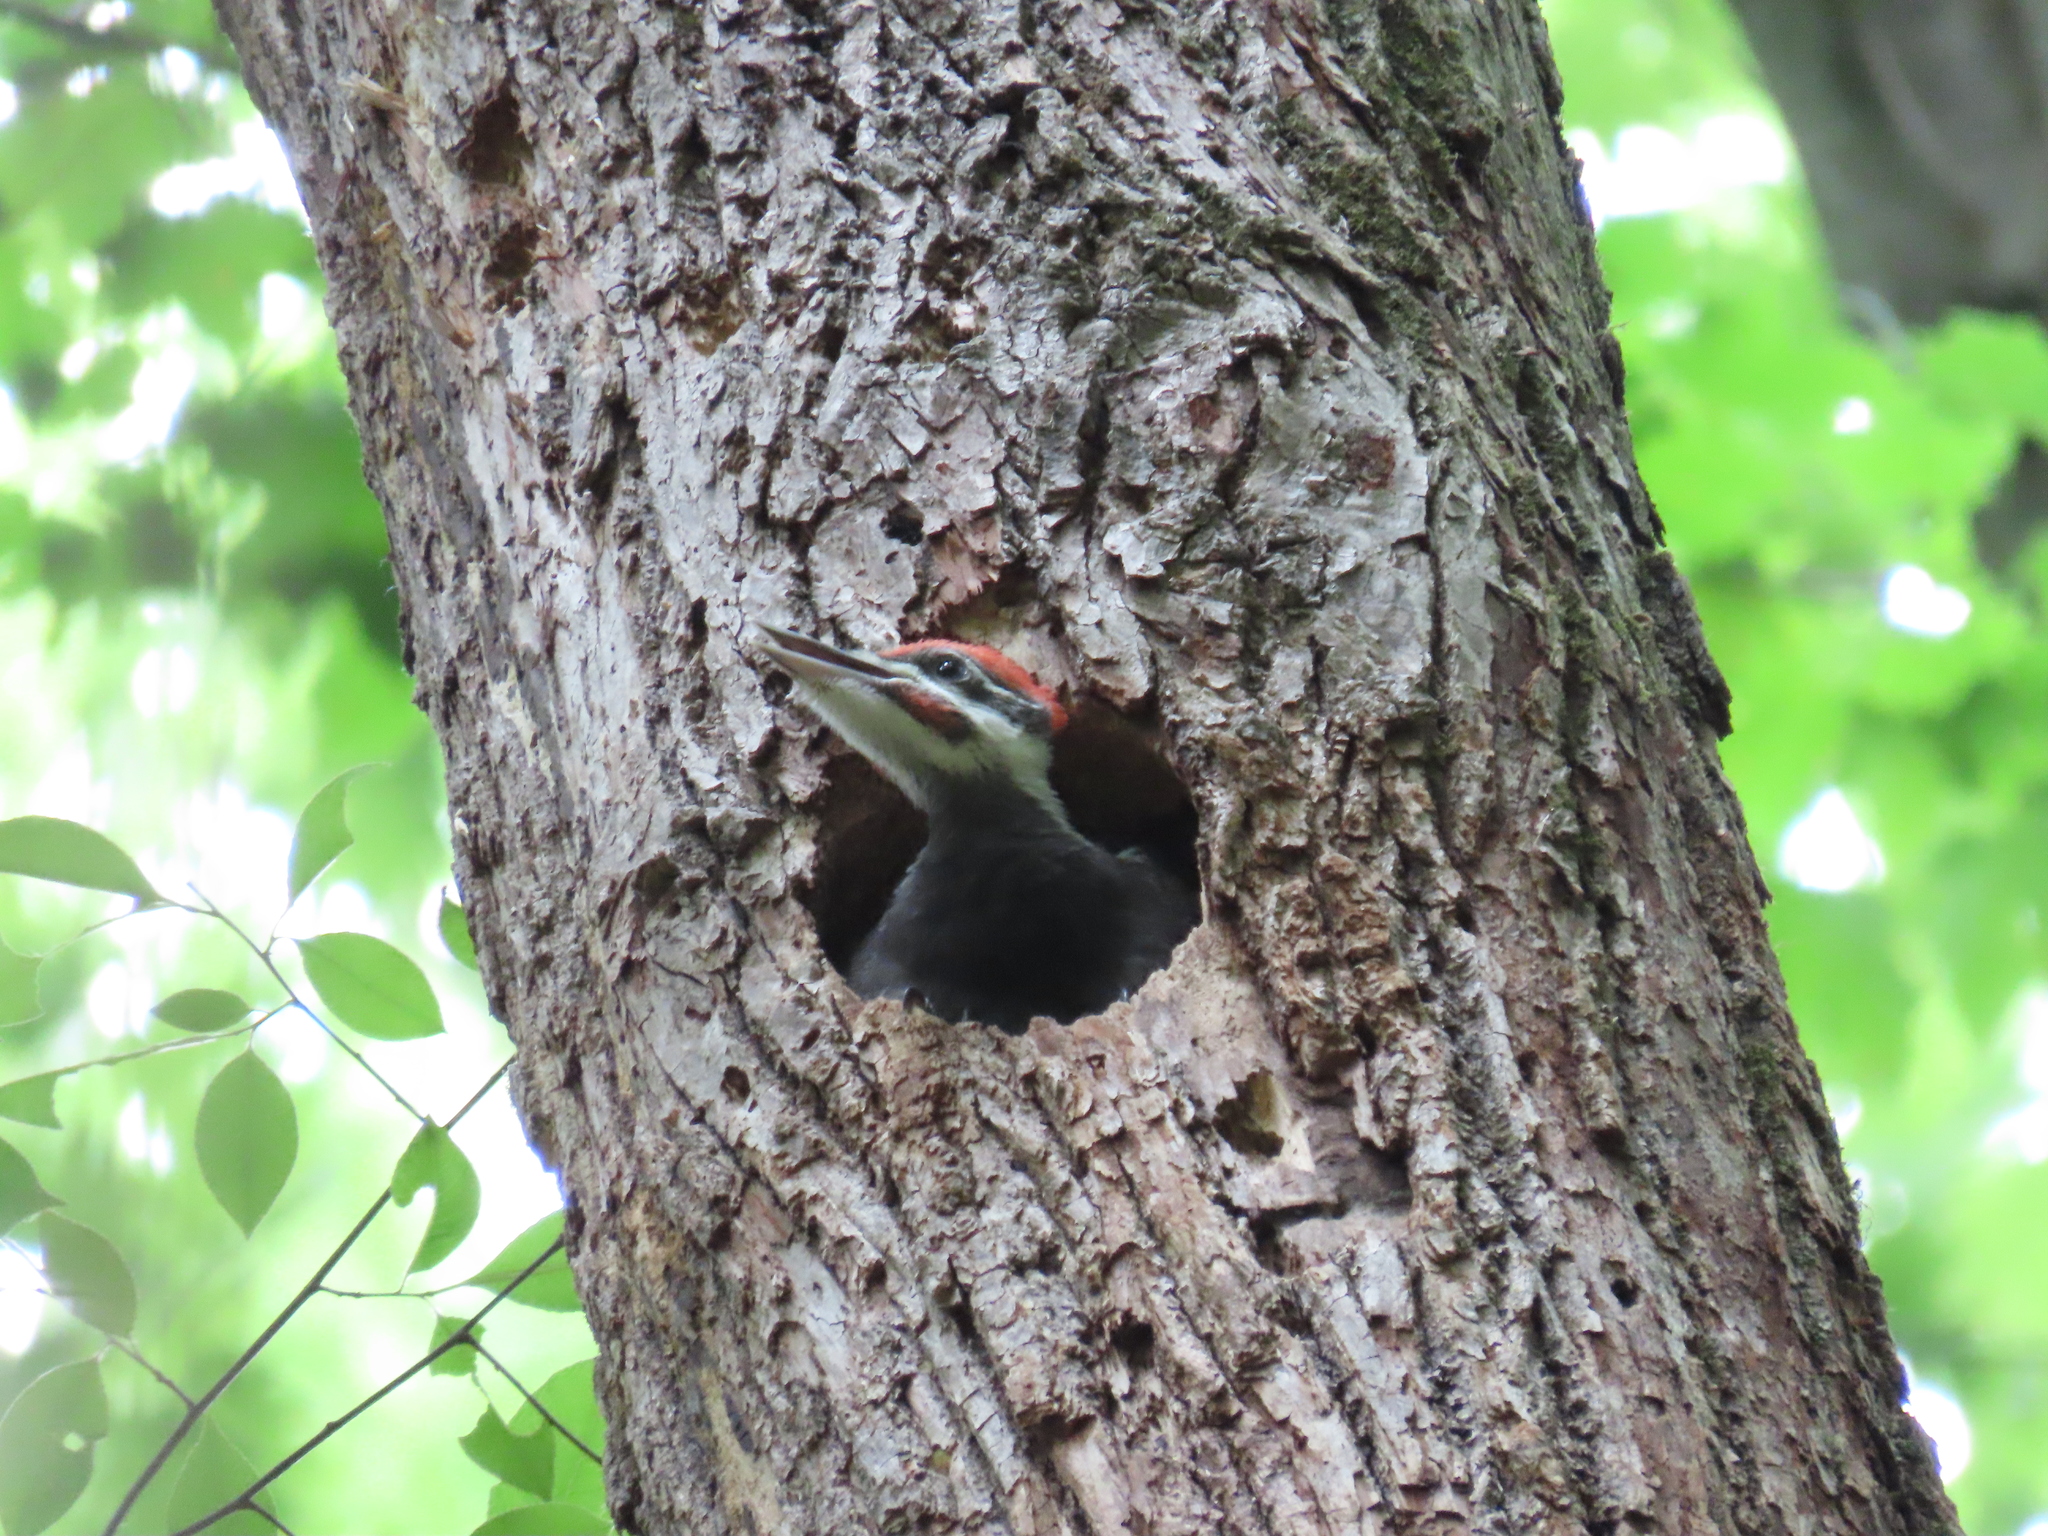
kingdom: Animalia
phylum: Chordata
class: Aves
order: Piciformes
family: Picidae
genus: Dryocopus
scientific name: Dryocopus pileatus
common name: Pileated woodpecker
